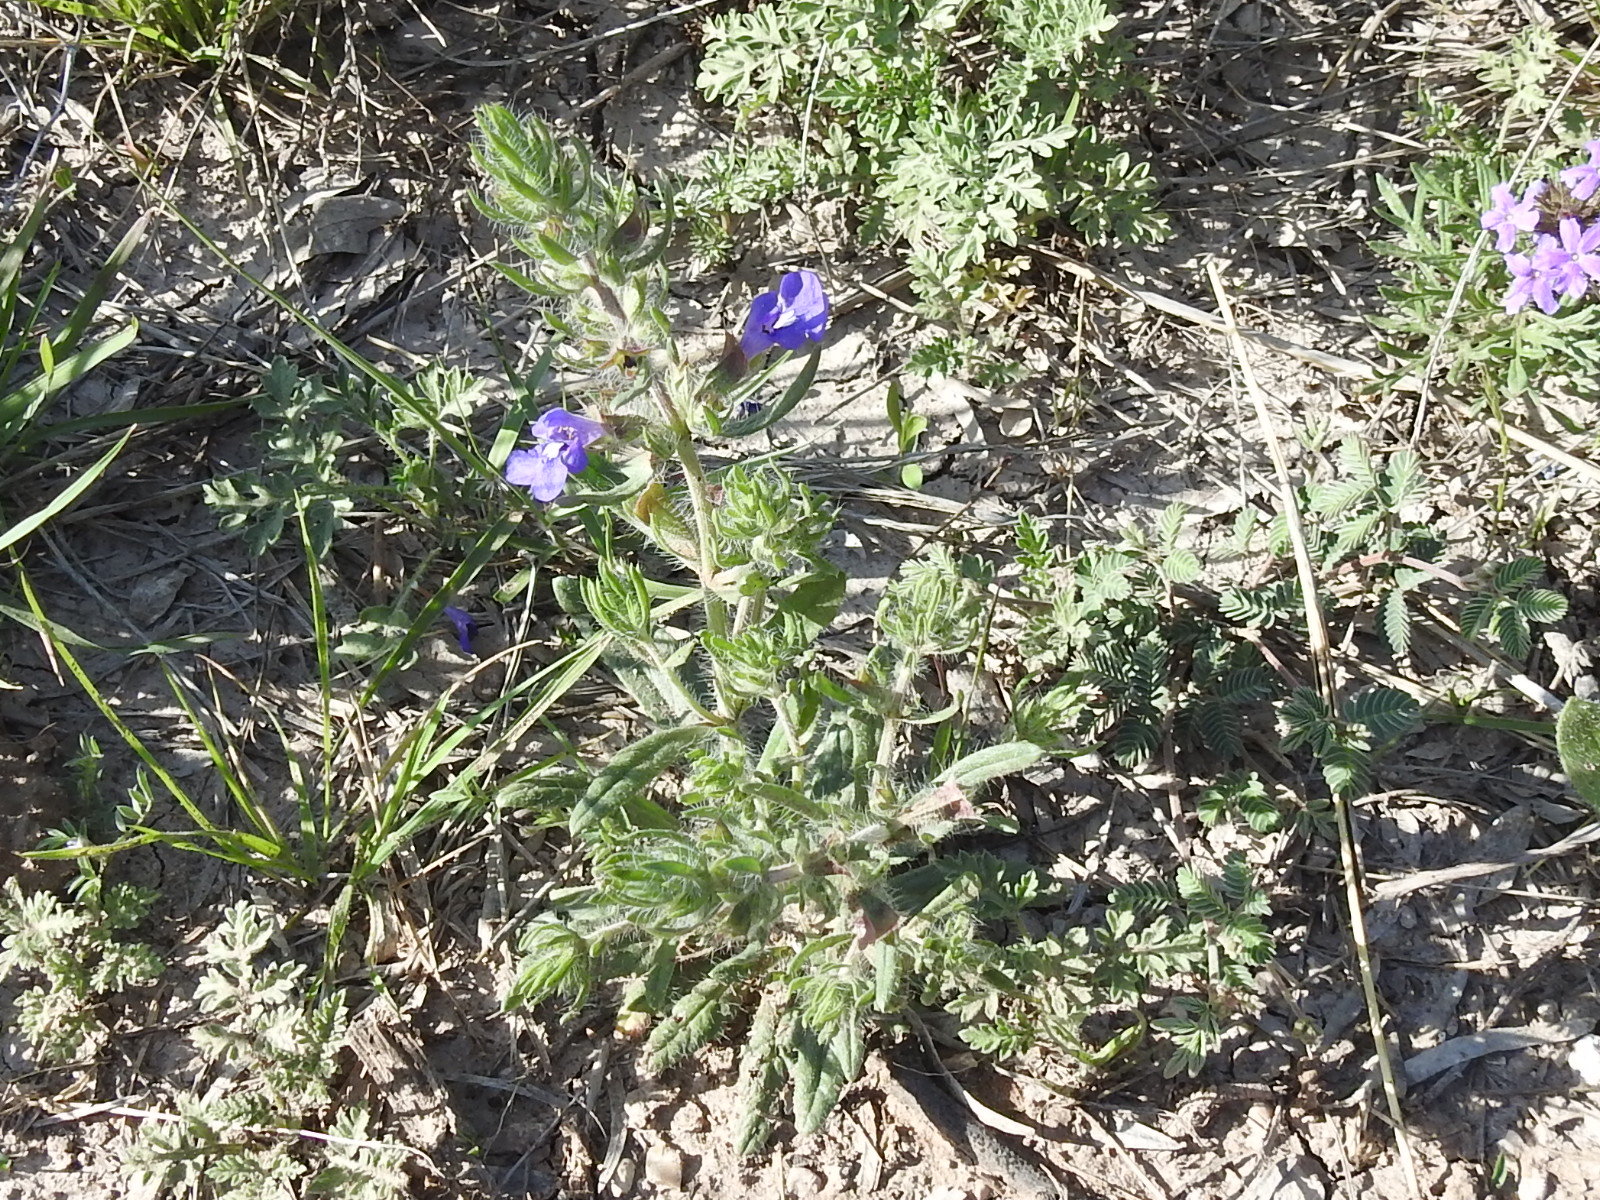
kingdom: Plantae
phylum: Tracheophyta
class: Magnoliopsida
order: Lamiales
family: Lamiaceae
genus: Salvia
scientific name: Salvia texana
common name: Texas sage
